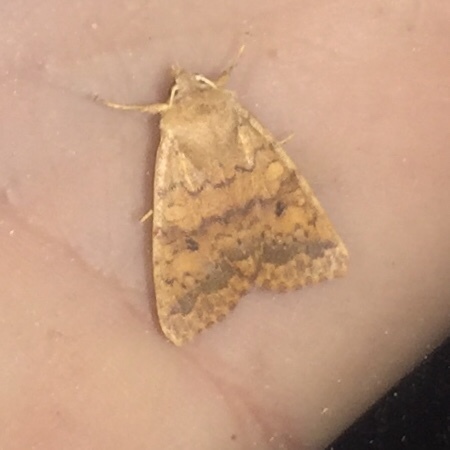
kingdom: Animalia
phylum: Arthropoda
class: Insecta
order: Lepidoptera
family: Noctuidae
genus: Agrochola
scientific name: Agrochola bicolorago
